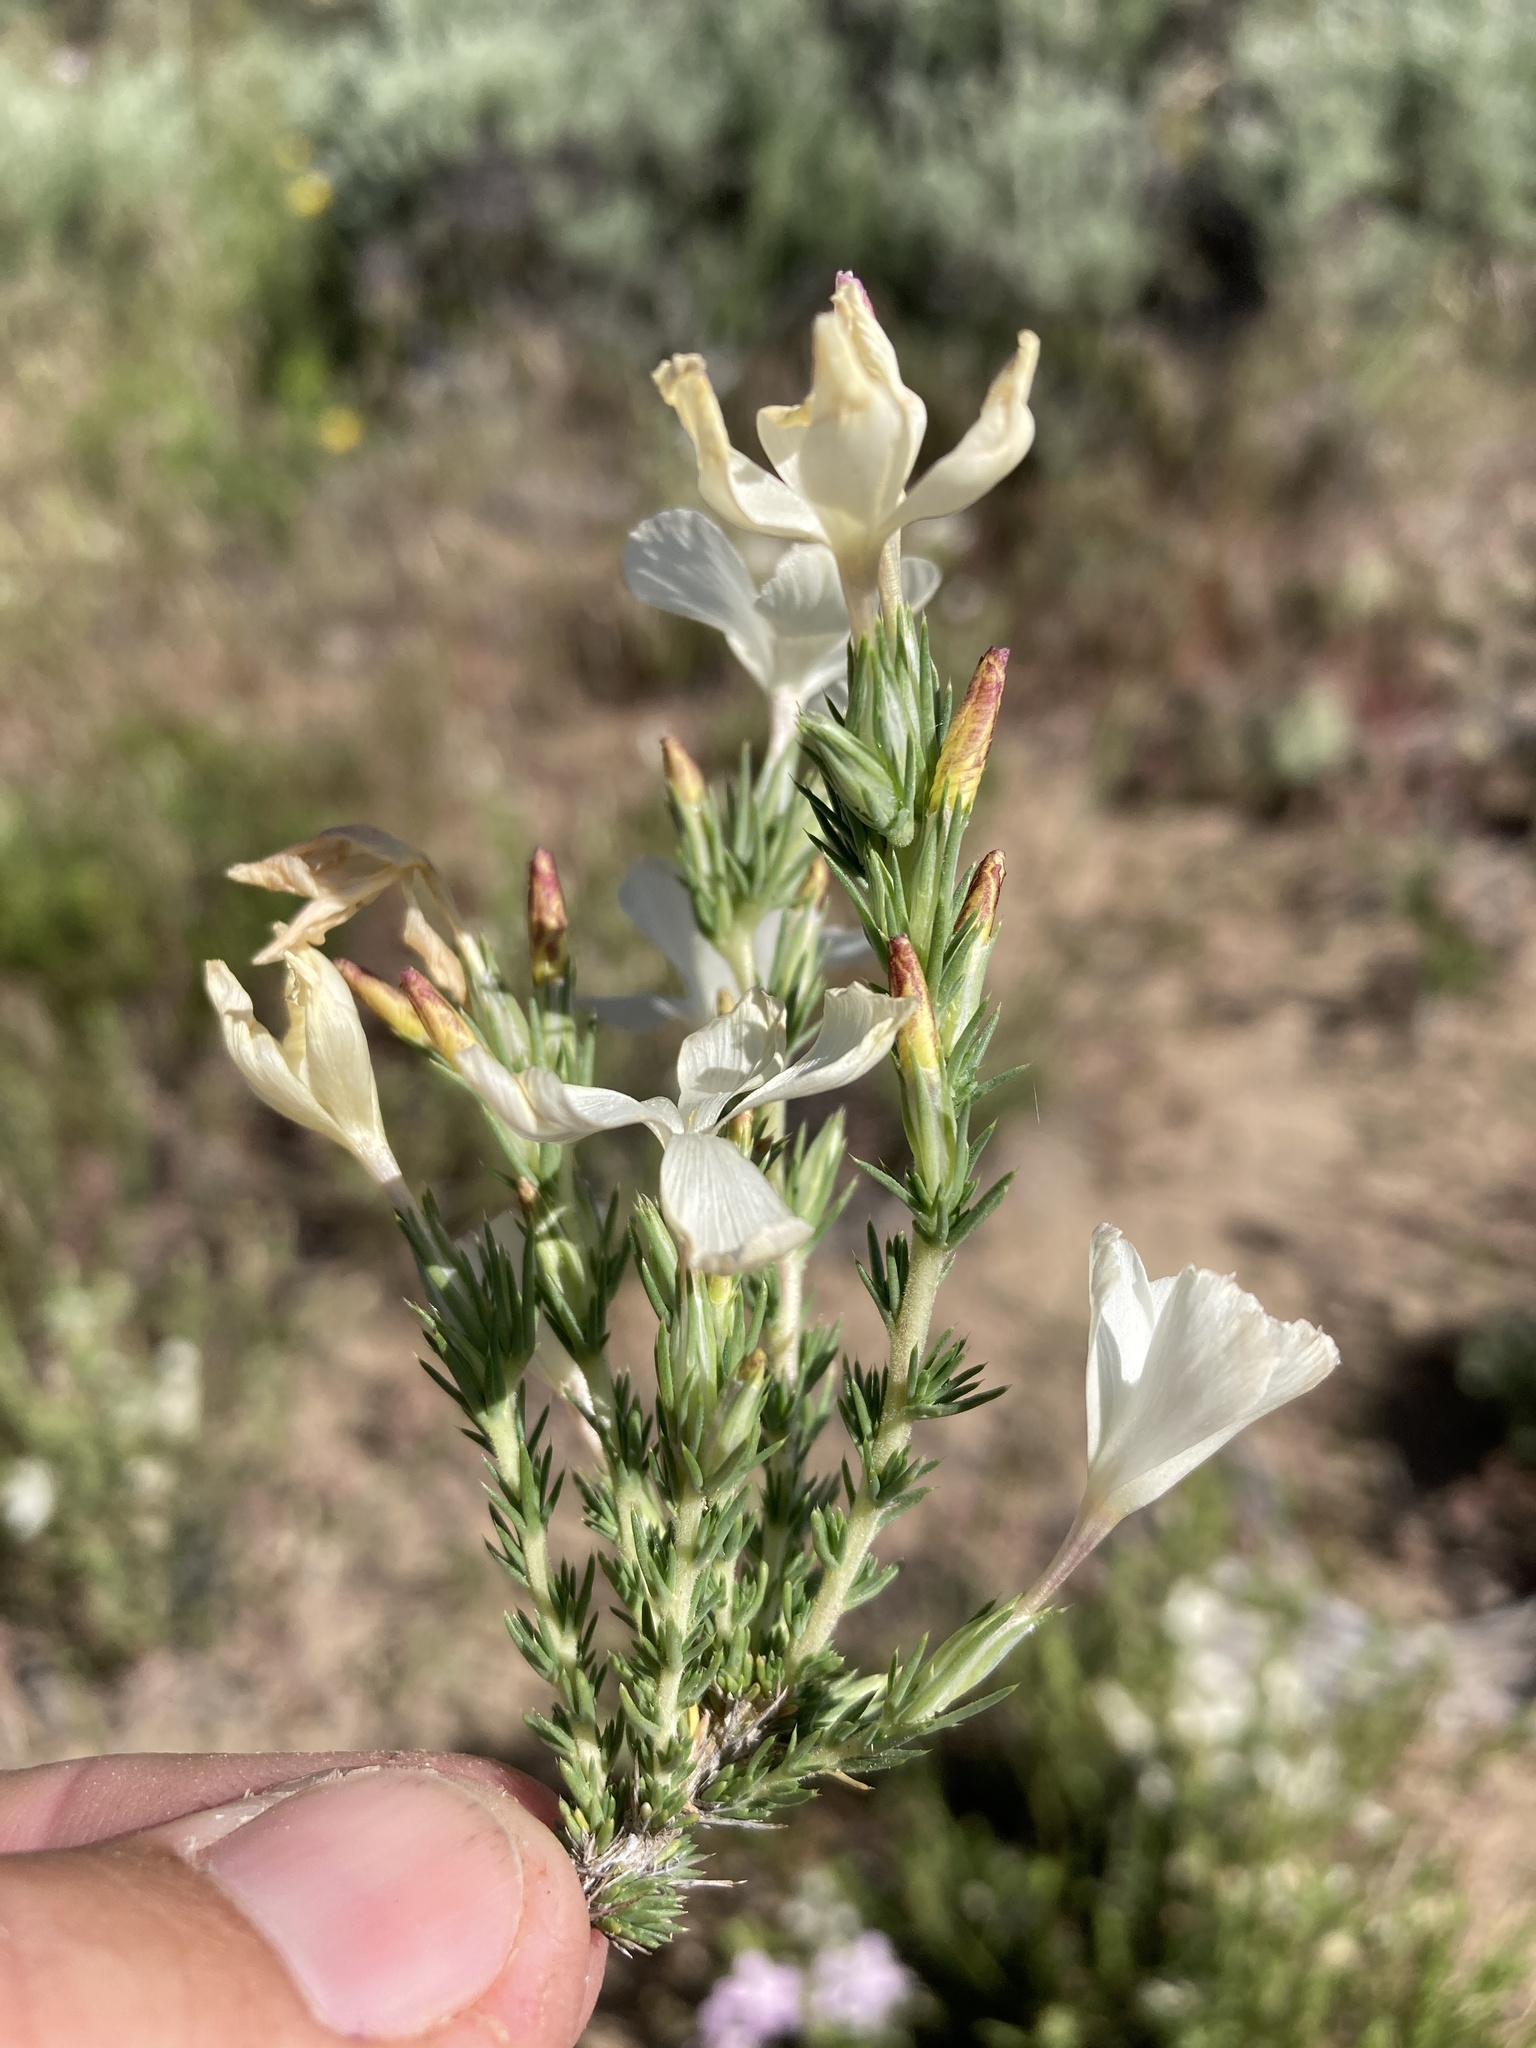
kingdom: Plantae
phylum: Tracheophyta
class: Magnoliopsida
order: Ericales
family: Polemoniaceae
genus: Linanthus
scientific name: Linanthus pungens
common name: Granite prickly phlox
